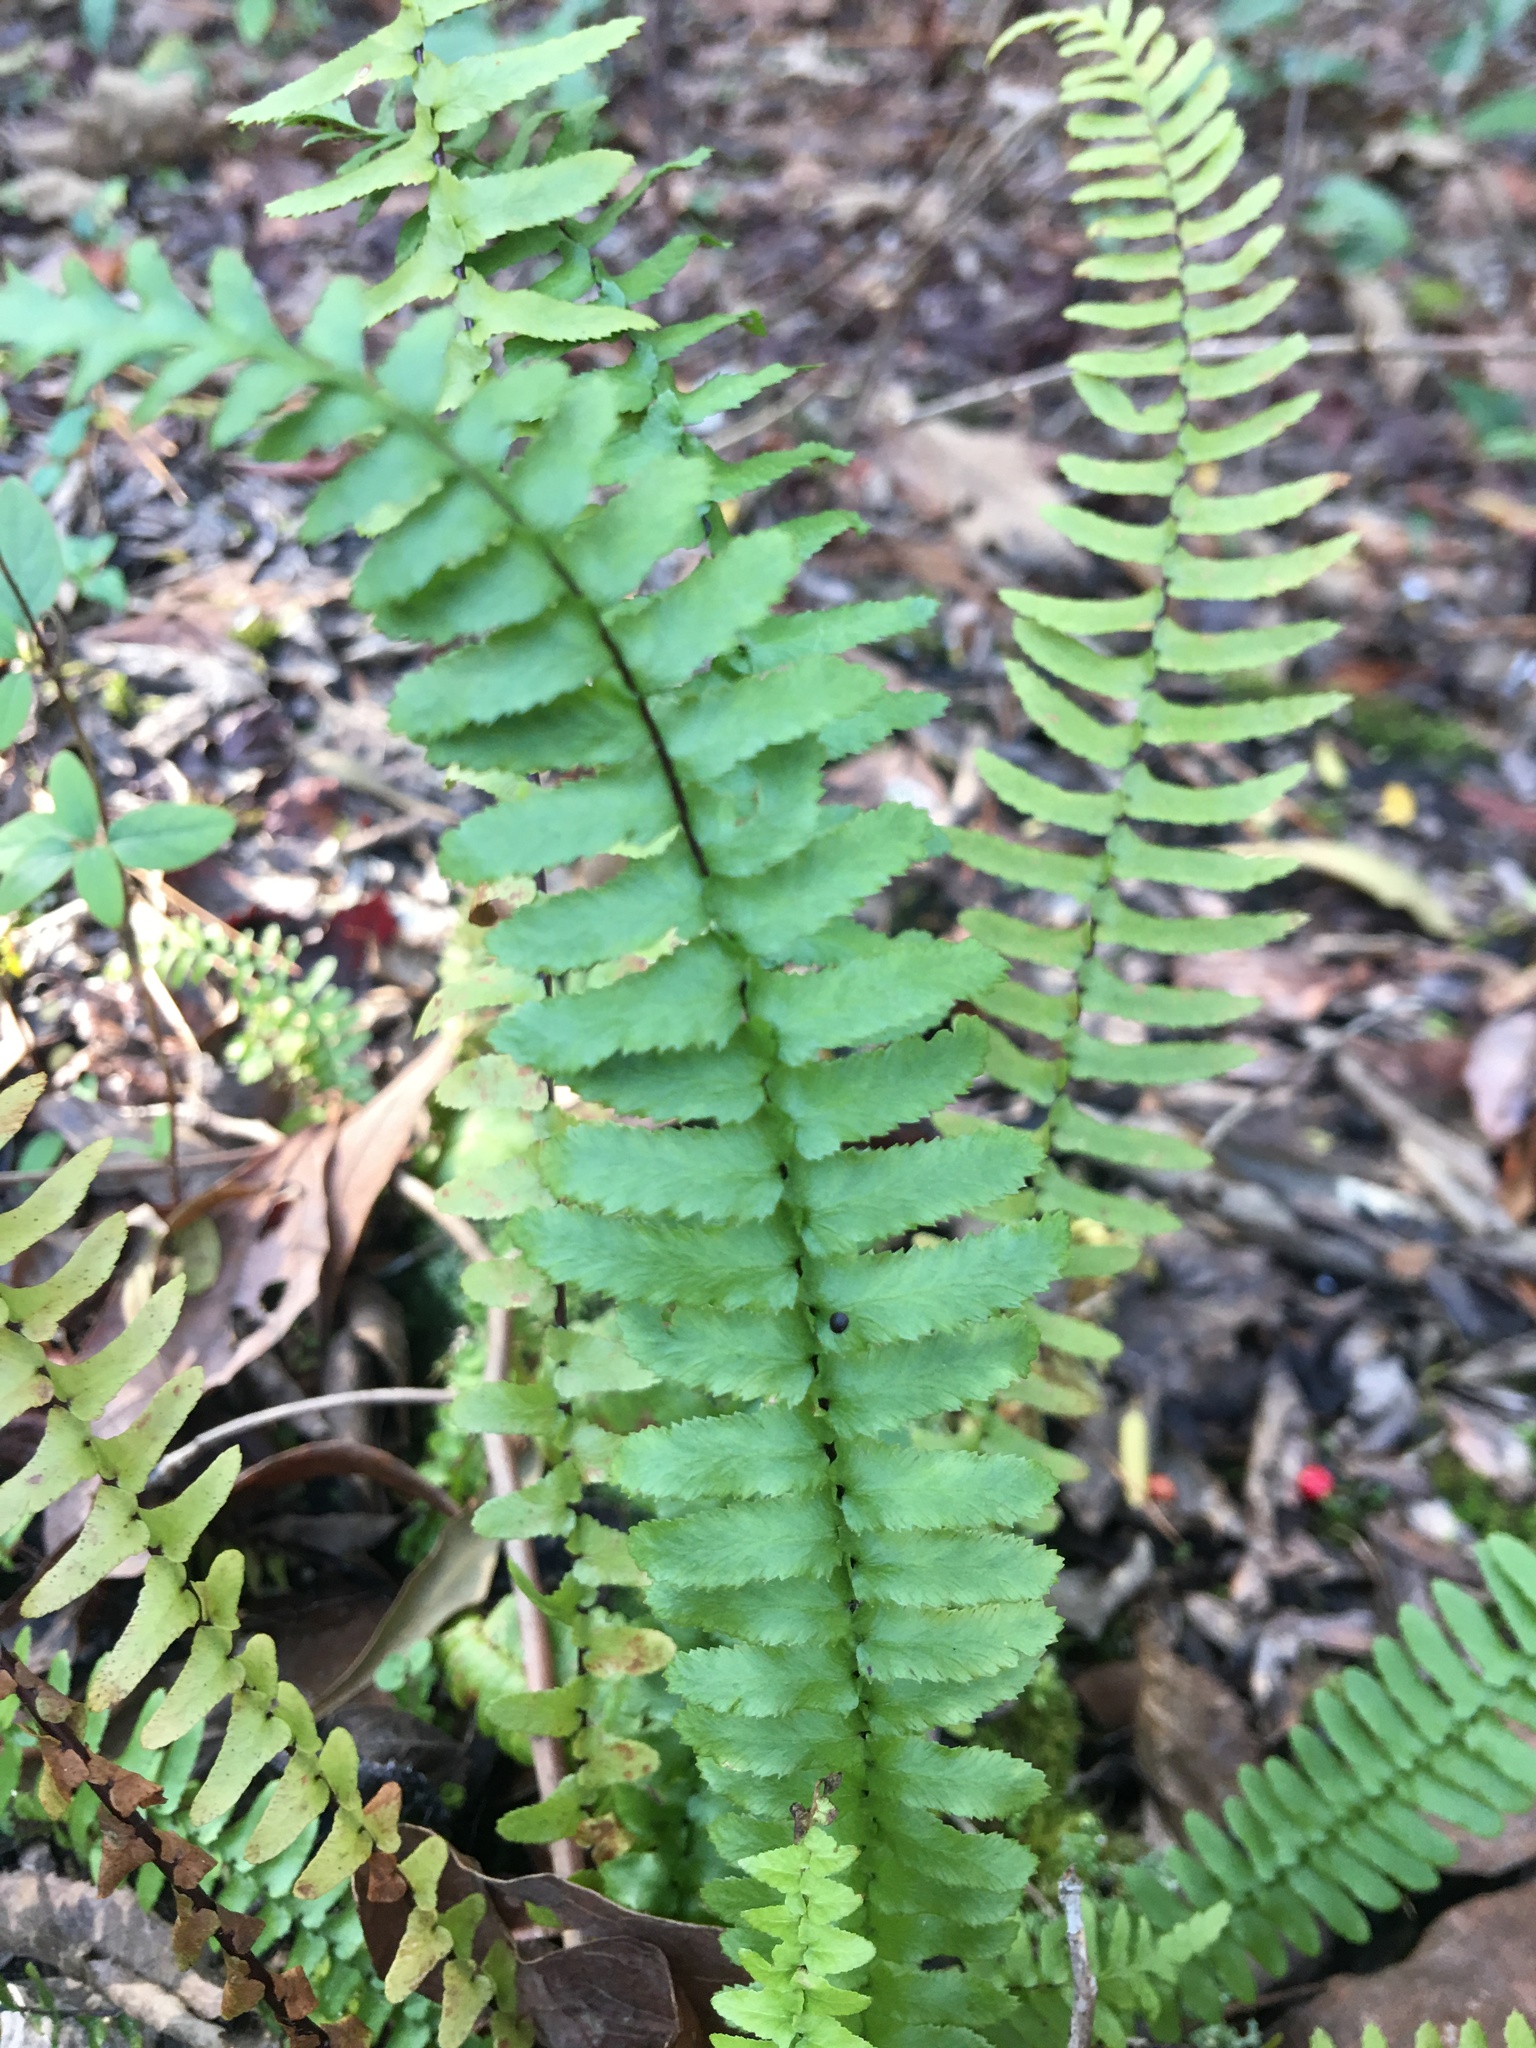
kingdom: Plantae
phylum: Tracheophyta
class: Polypodiopsida
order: Polypodiales
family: Aspleniaceae
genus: Asplenium
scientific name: Asplenium platyneuron
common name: Ebony spleenwort
